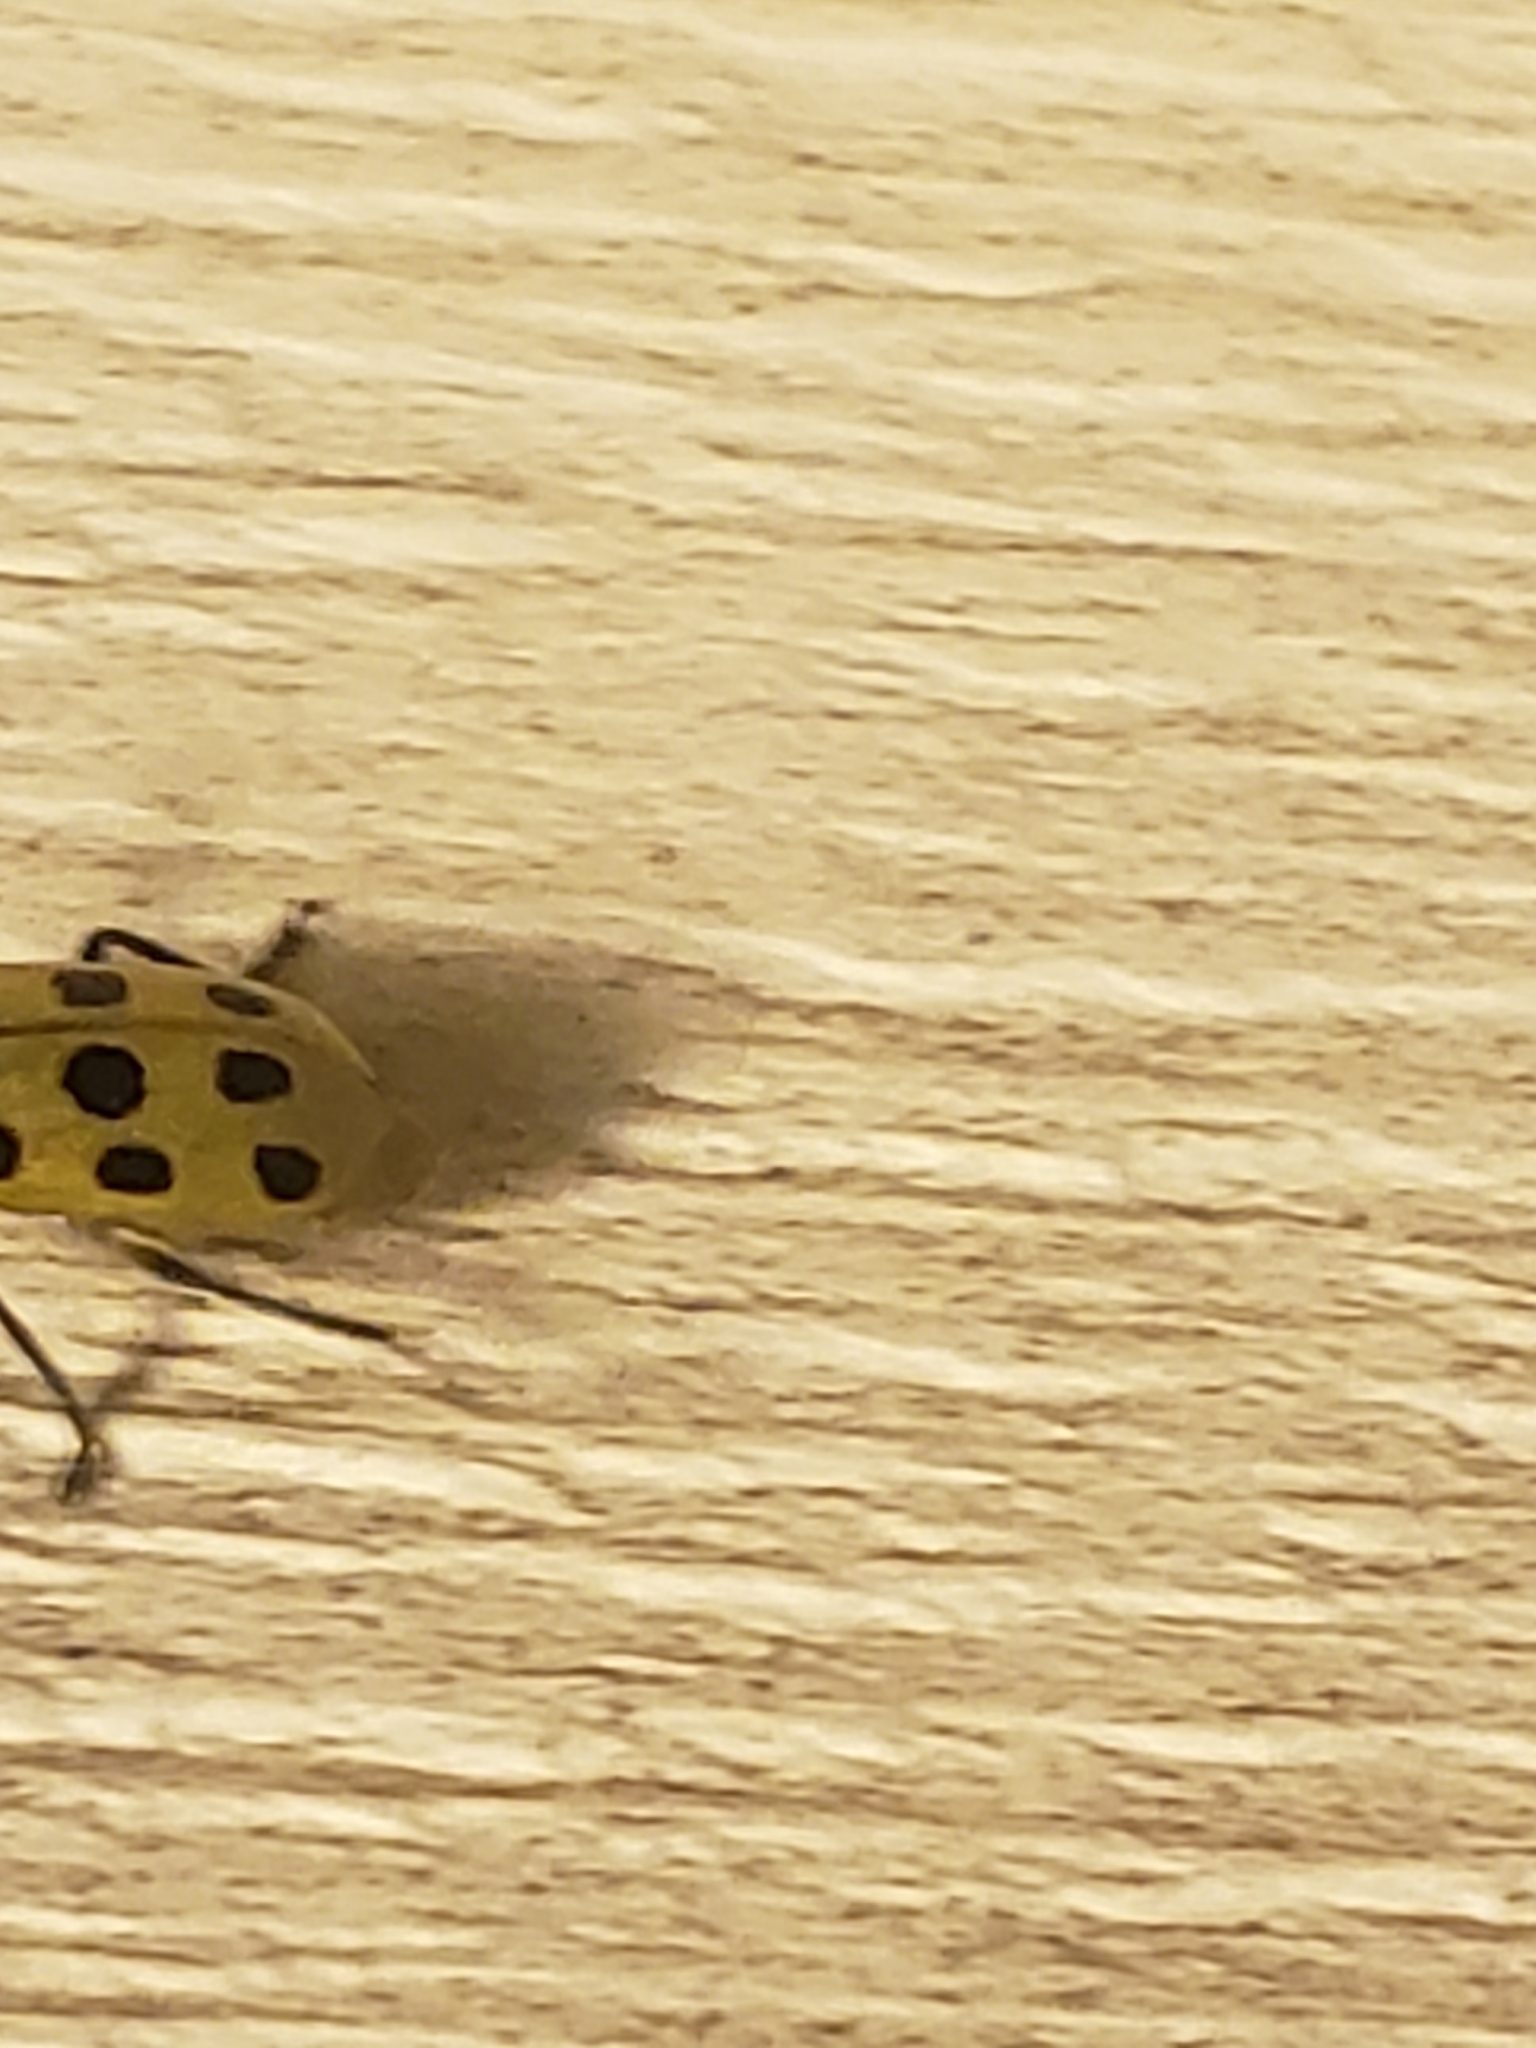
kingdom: Animalia
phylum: Arthropoda
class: Insecta
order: Coleoptera
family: Chrysomelidae
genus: Diabrotica
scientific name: Diabrotica undecimpunctata
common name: Spotted cucumber beetle
